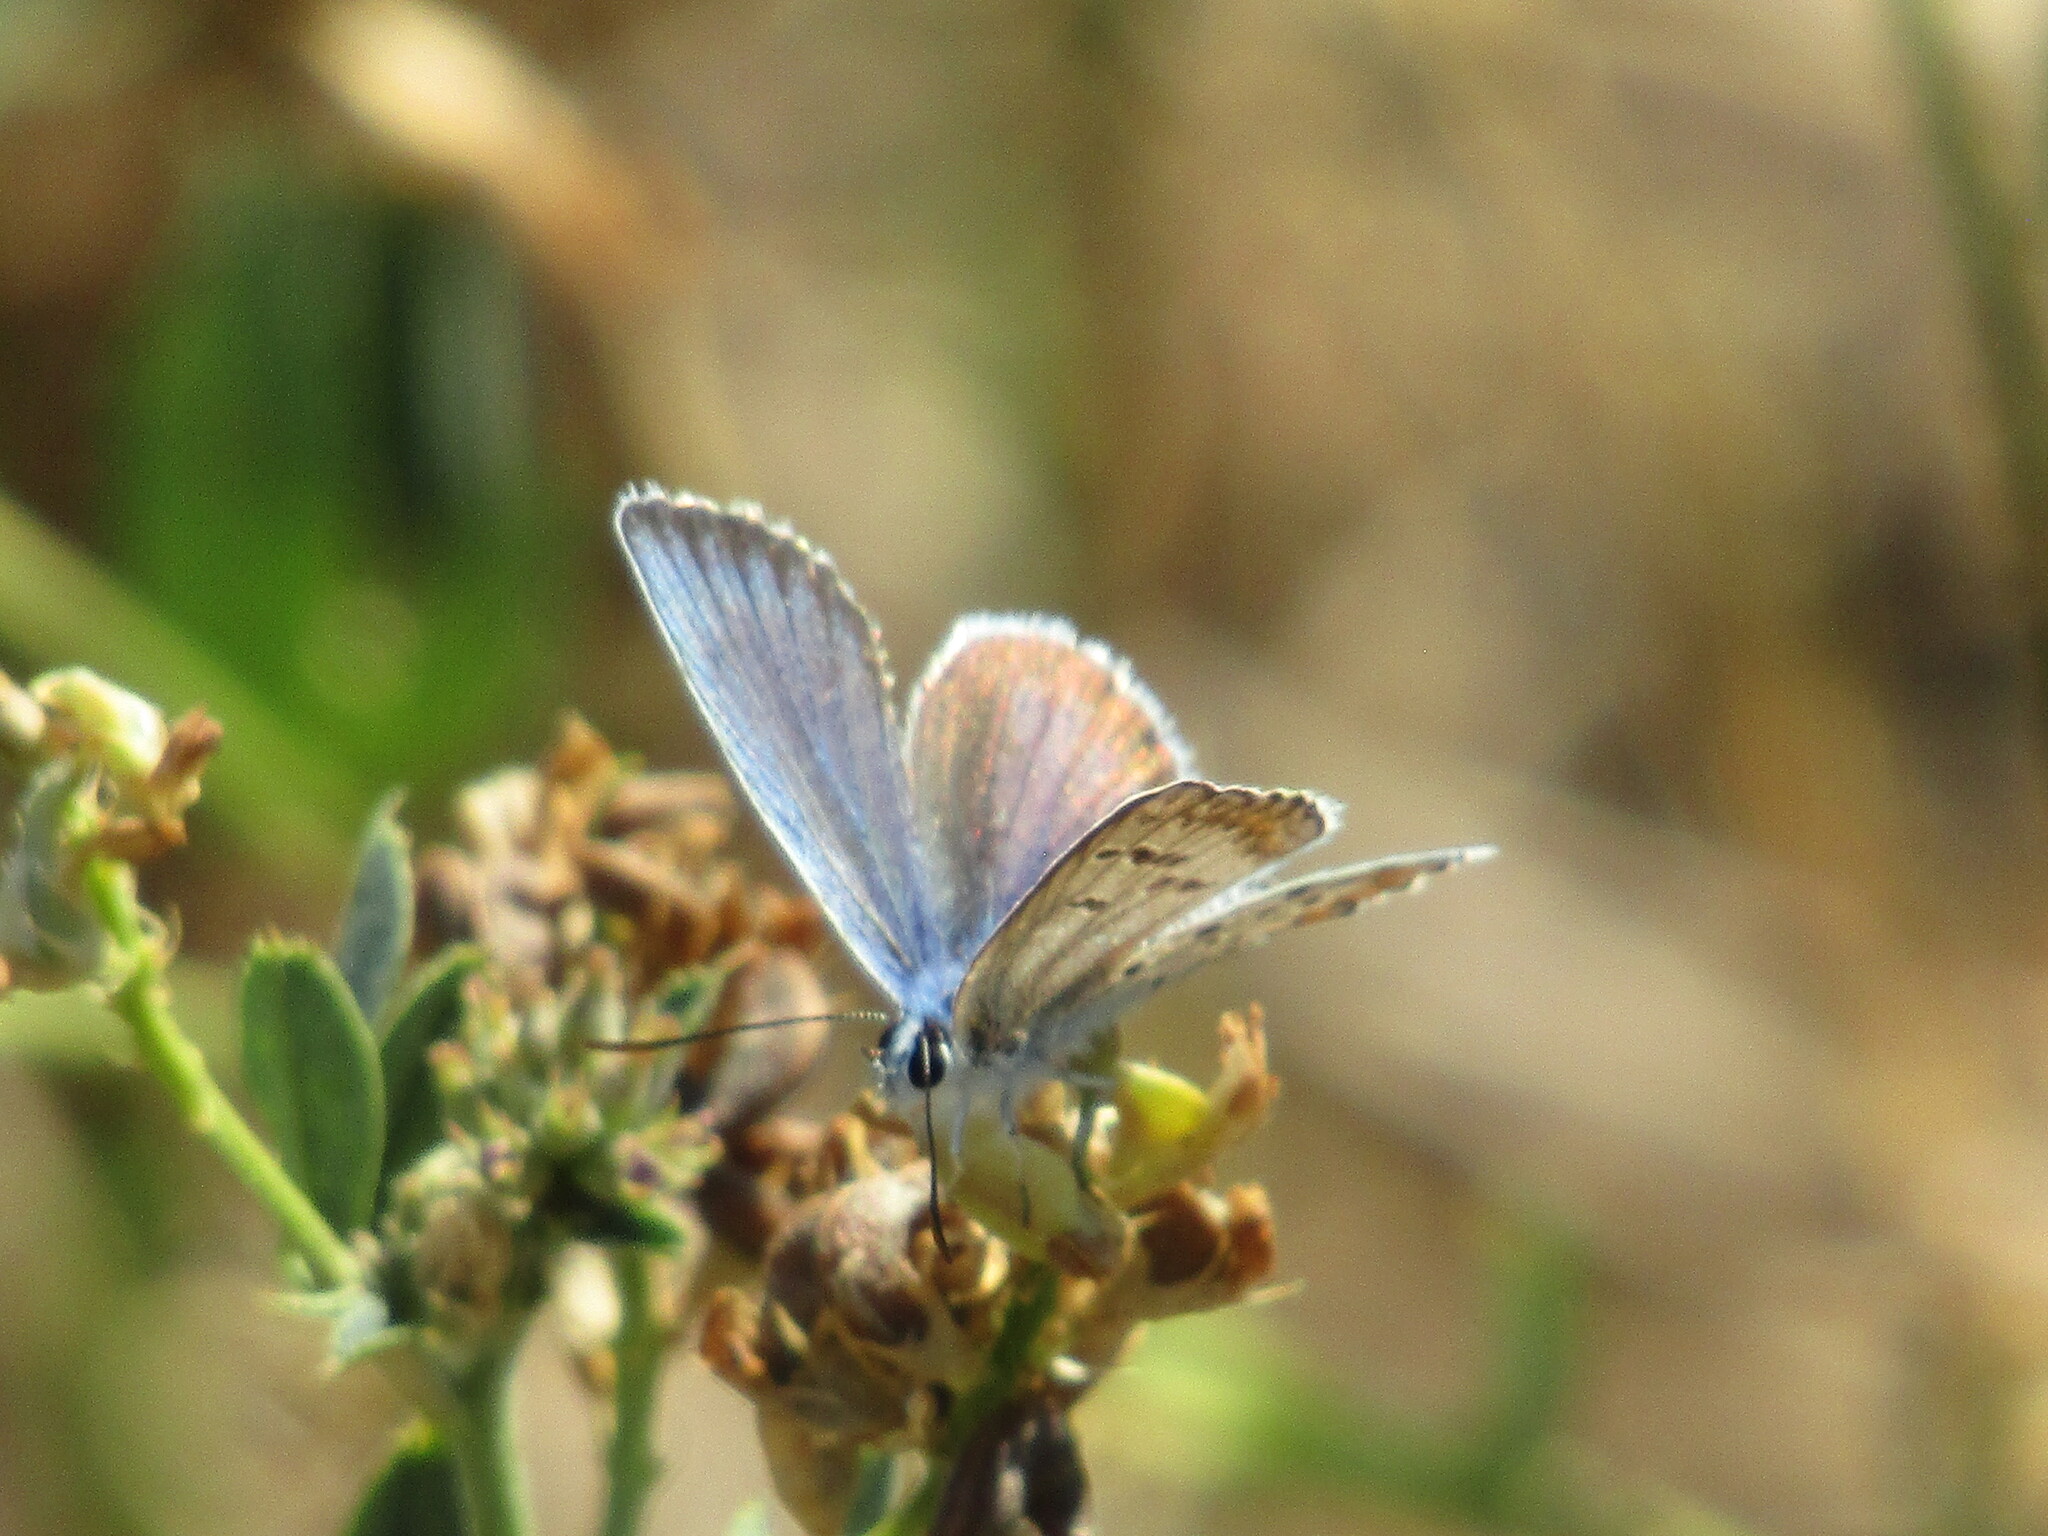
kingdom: Animalia
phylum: Arthropoda
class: Insecta
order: Lepidoptera
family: Lycaenidae
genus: Plebejus
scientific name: Plebejus argus
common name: Silver-studded blue
